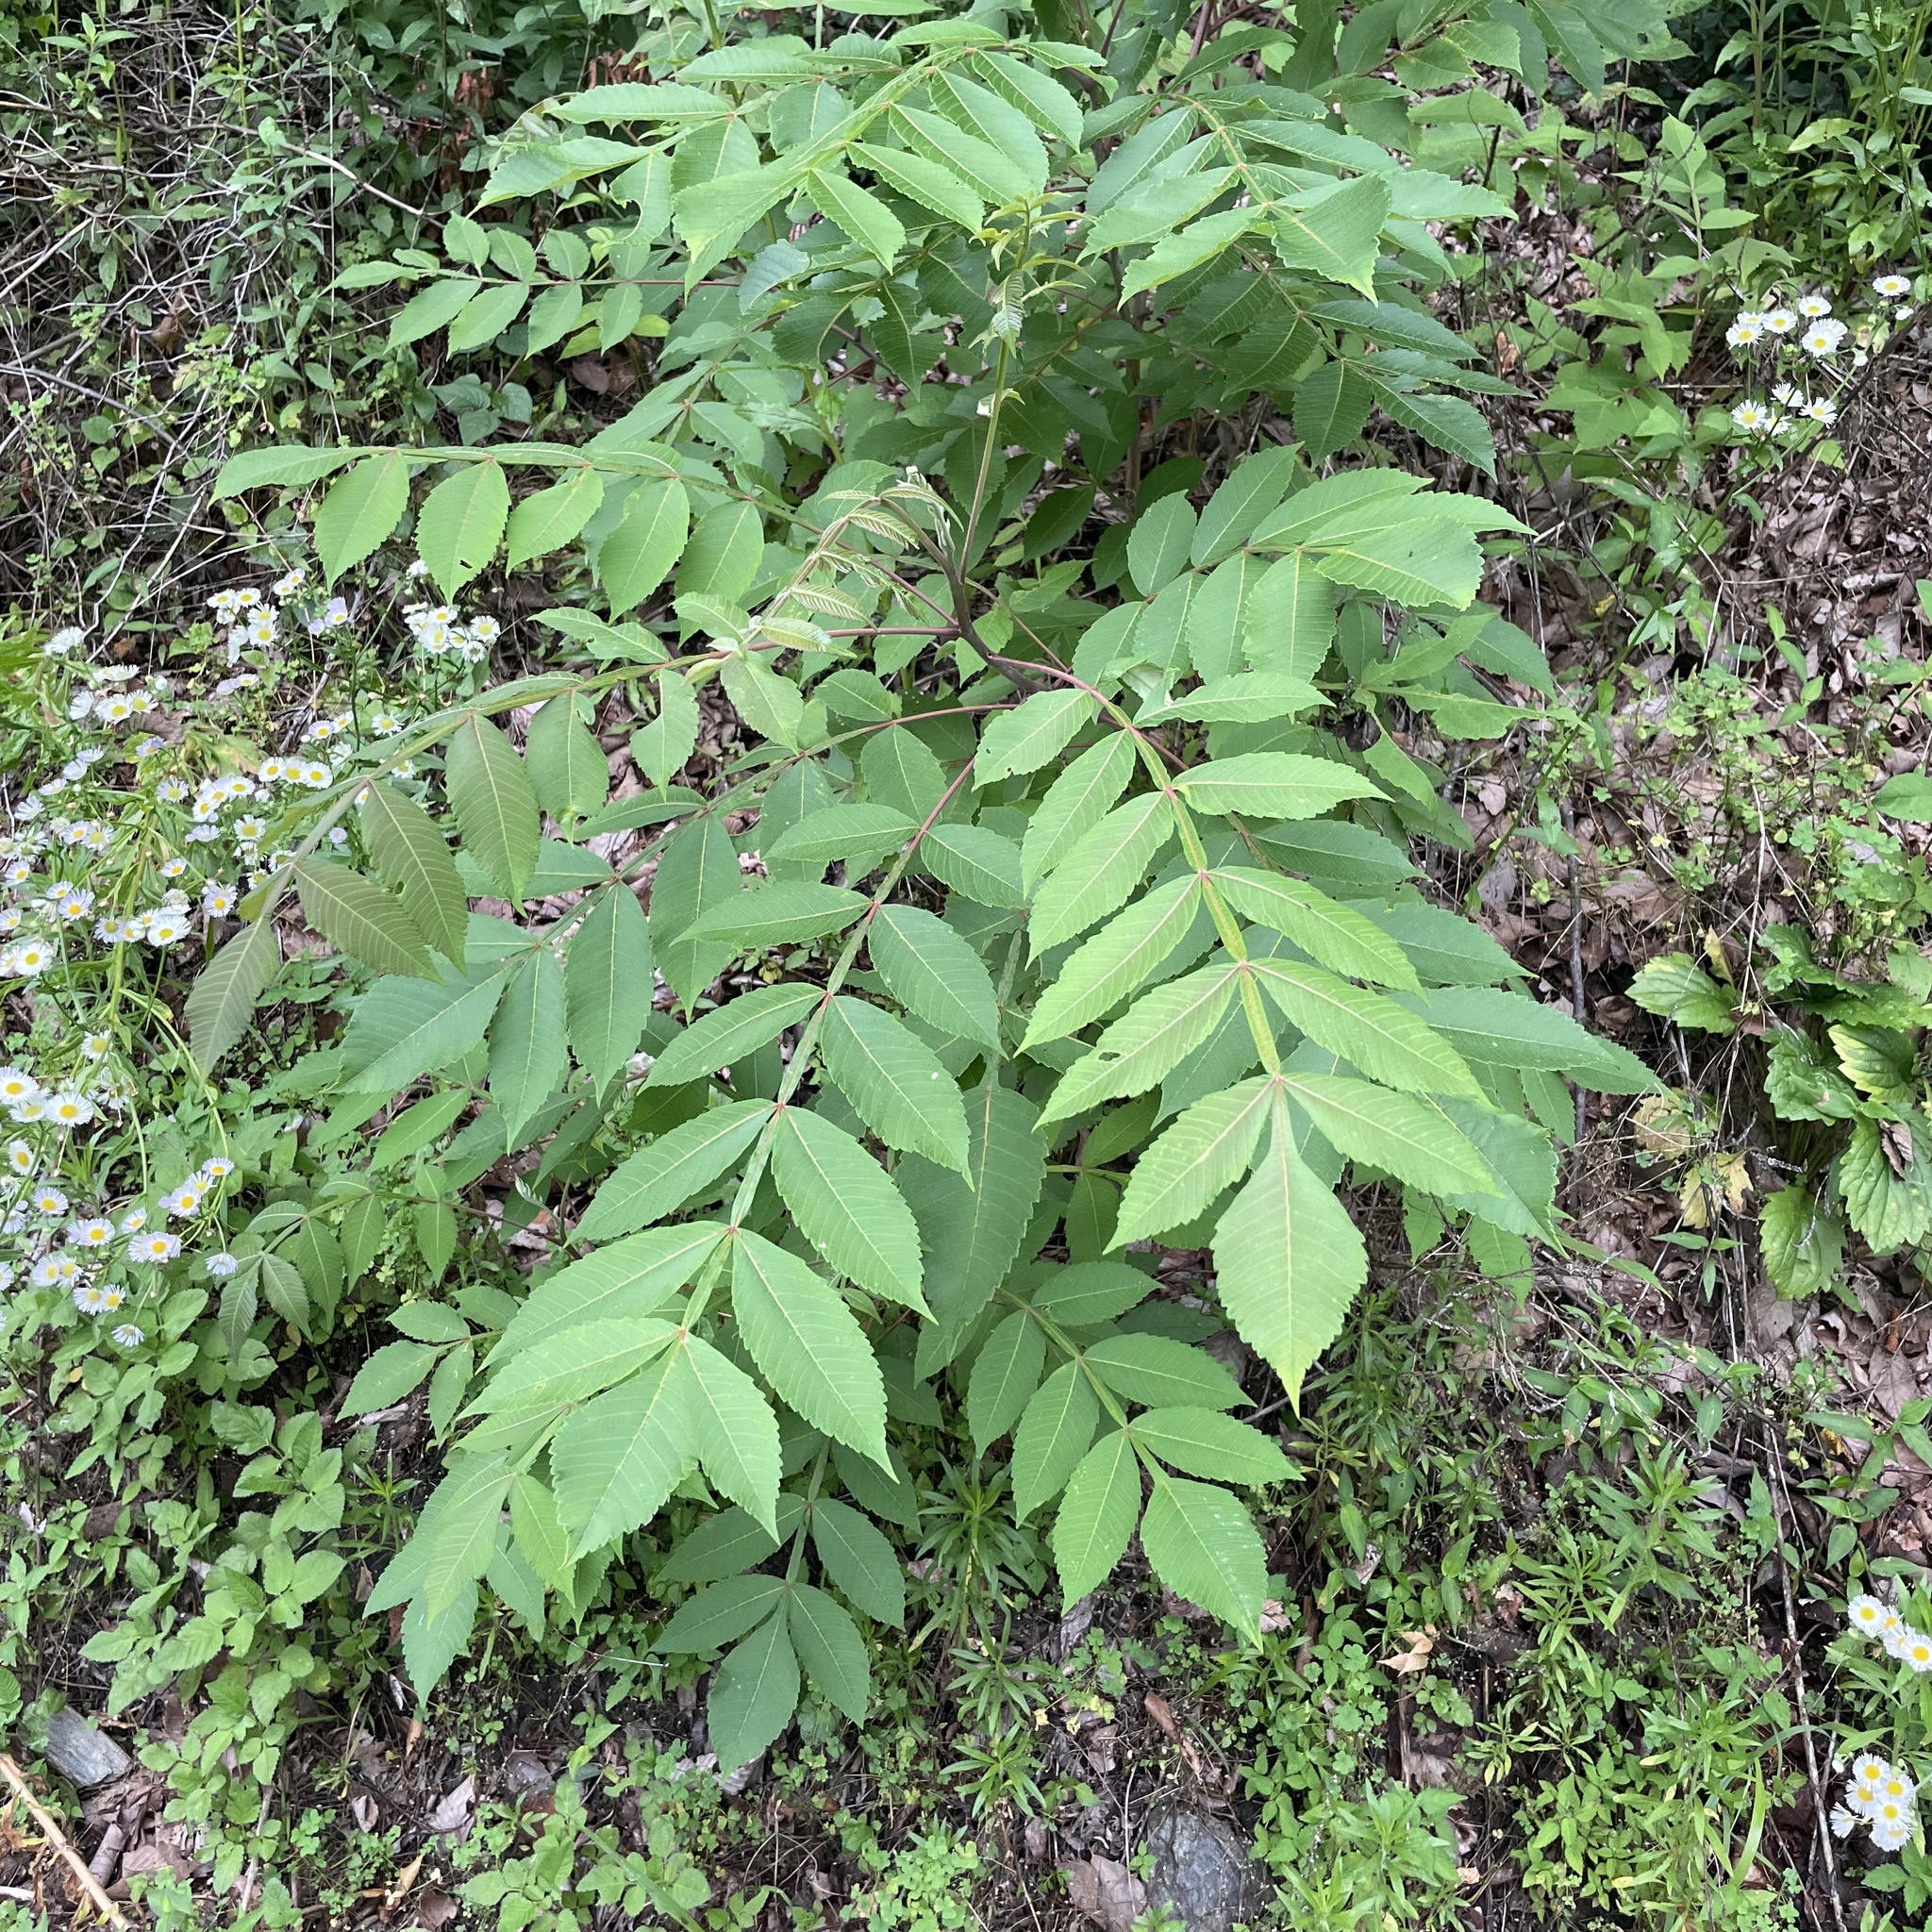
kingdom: Plantae
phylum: Tracheophyta
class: Magnoliopsida
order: Sapindales
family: Anacardiaceae
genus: Rhus
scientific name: Rhus chinensis
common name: Chinese gall
